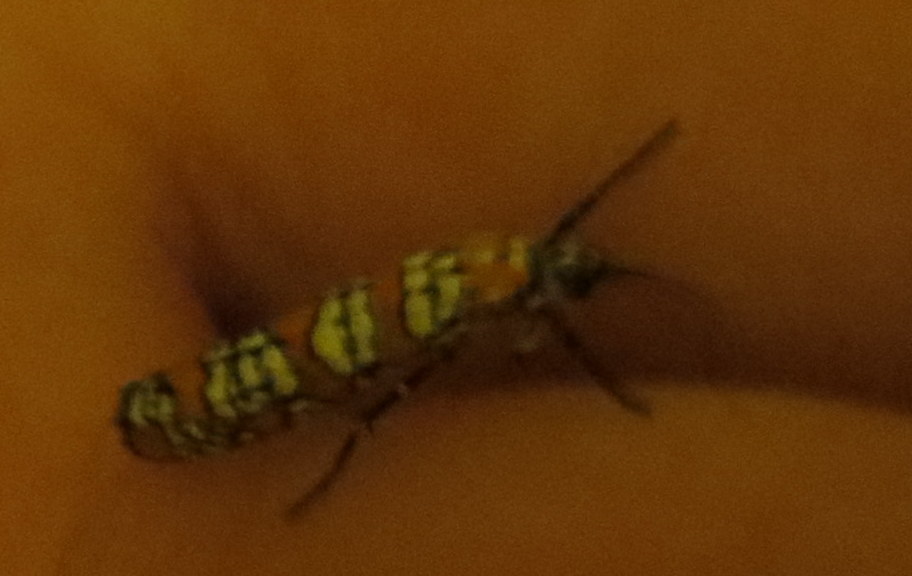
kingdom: Animalia
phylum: Arthropoda
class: Insecta
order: Lepidoptera
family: Attevidae
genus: Atteva
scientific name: Atteva punctella
